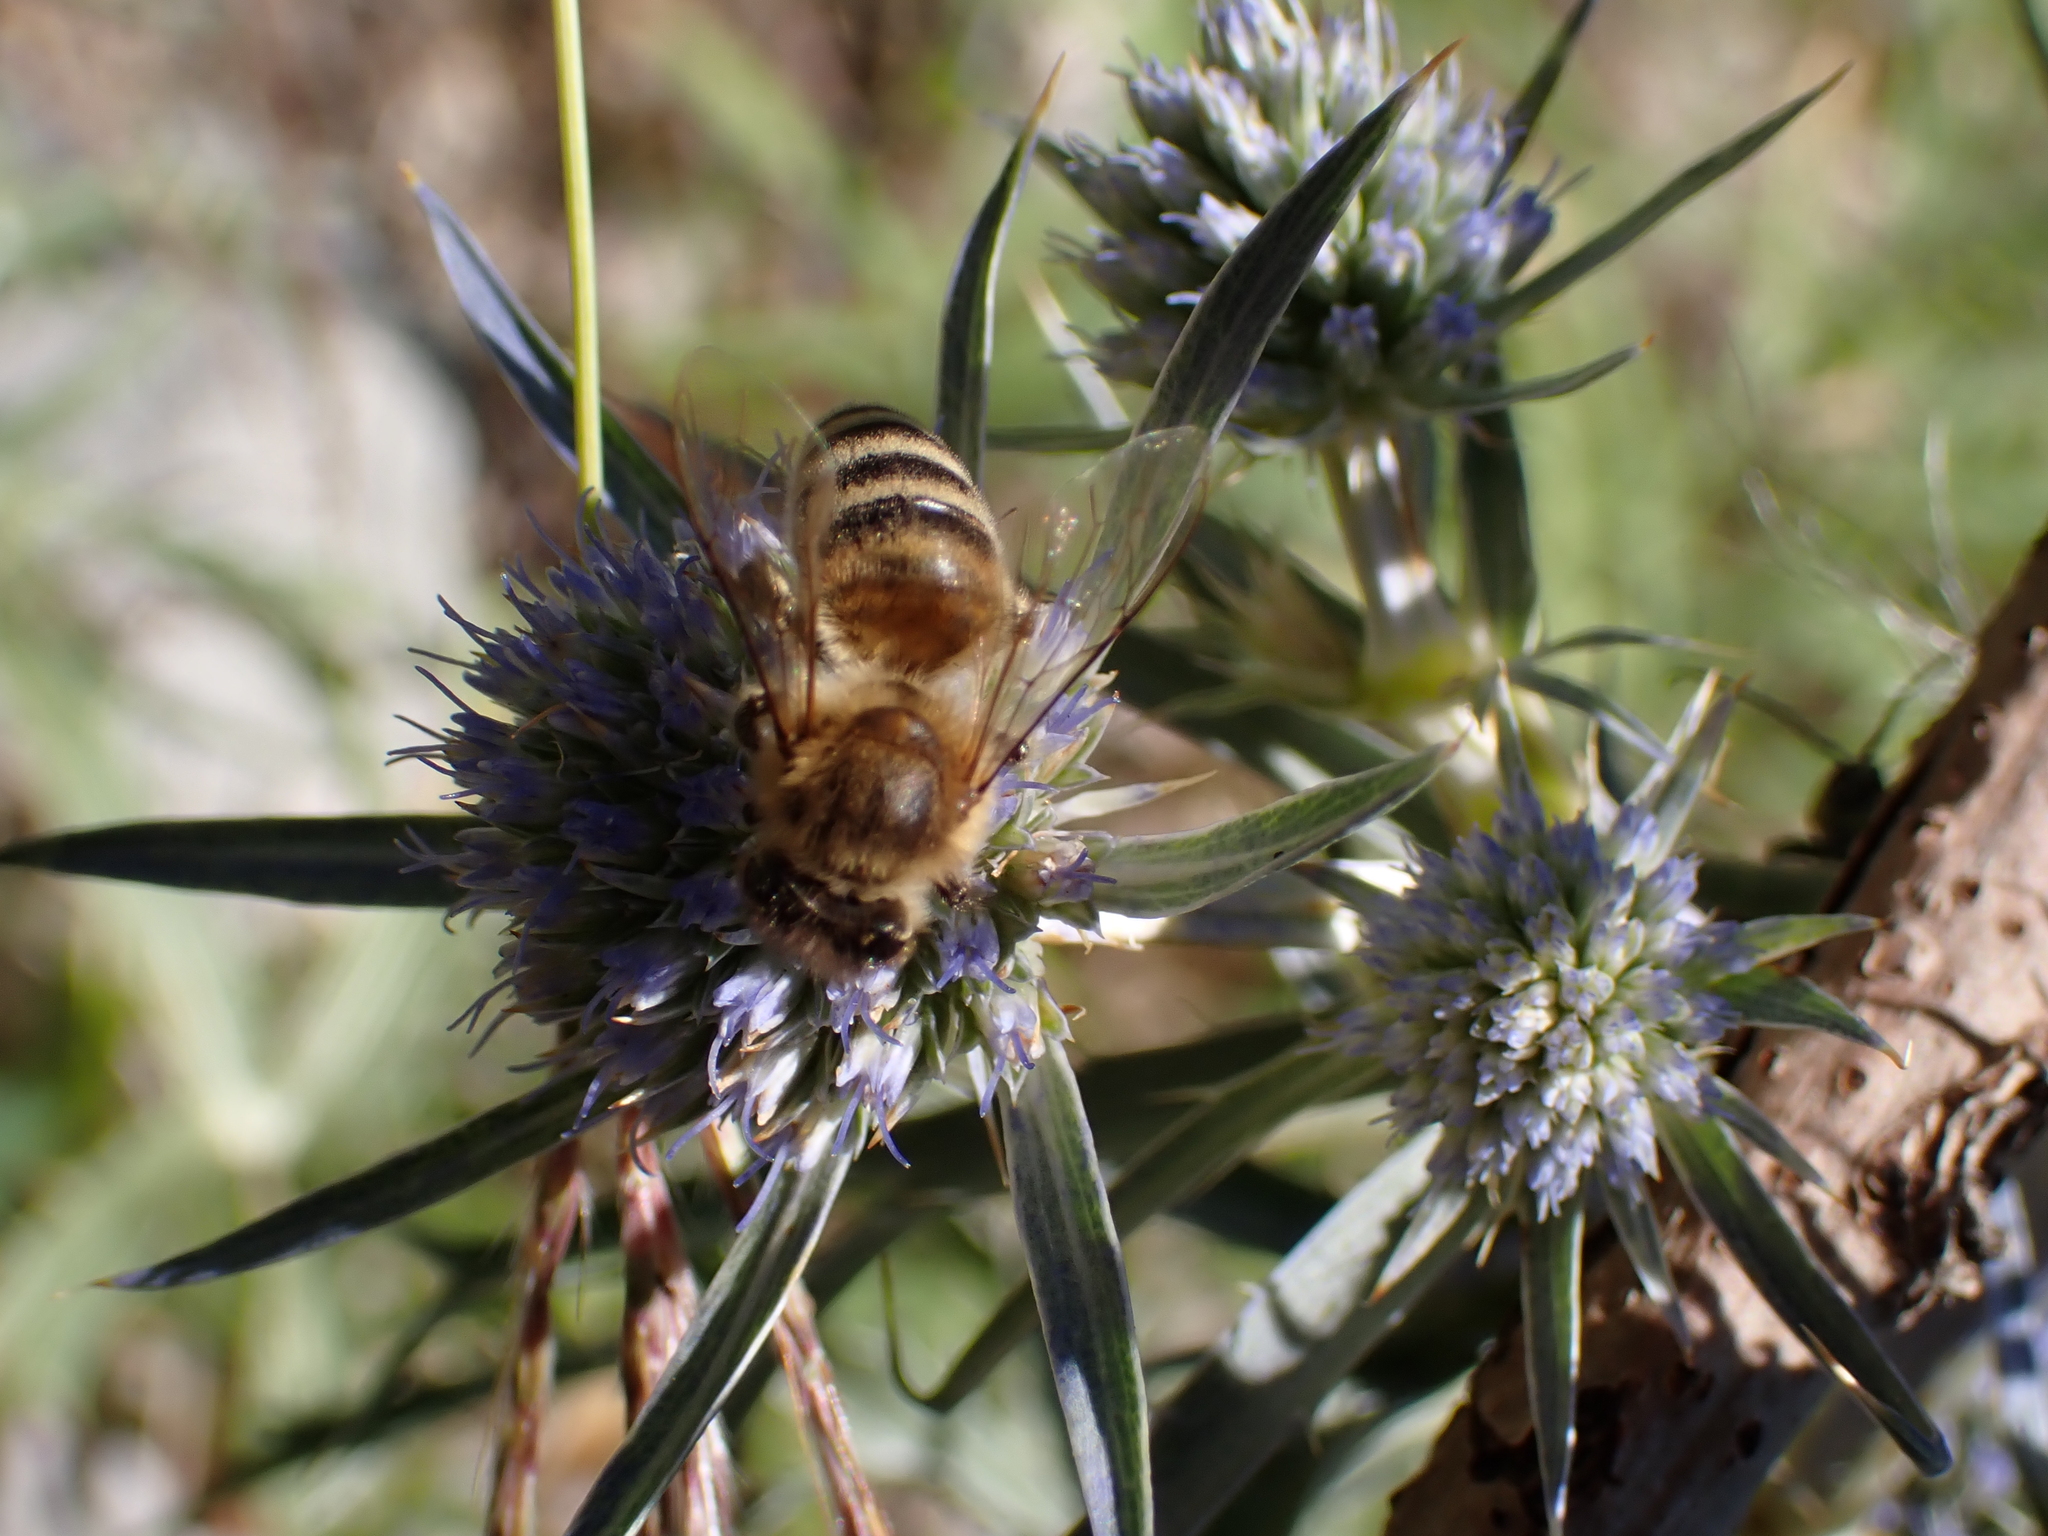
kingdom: Animalia
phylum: Arthropoda
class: Insecta
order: Hymenoptera
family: Apidae
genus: Apis
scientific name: Apis mellifera
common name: Honey bee
